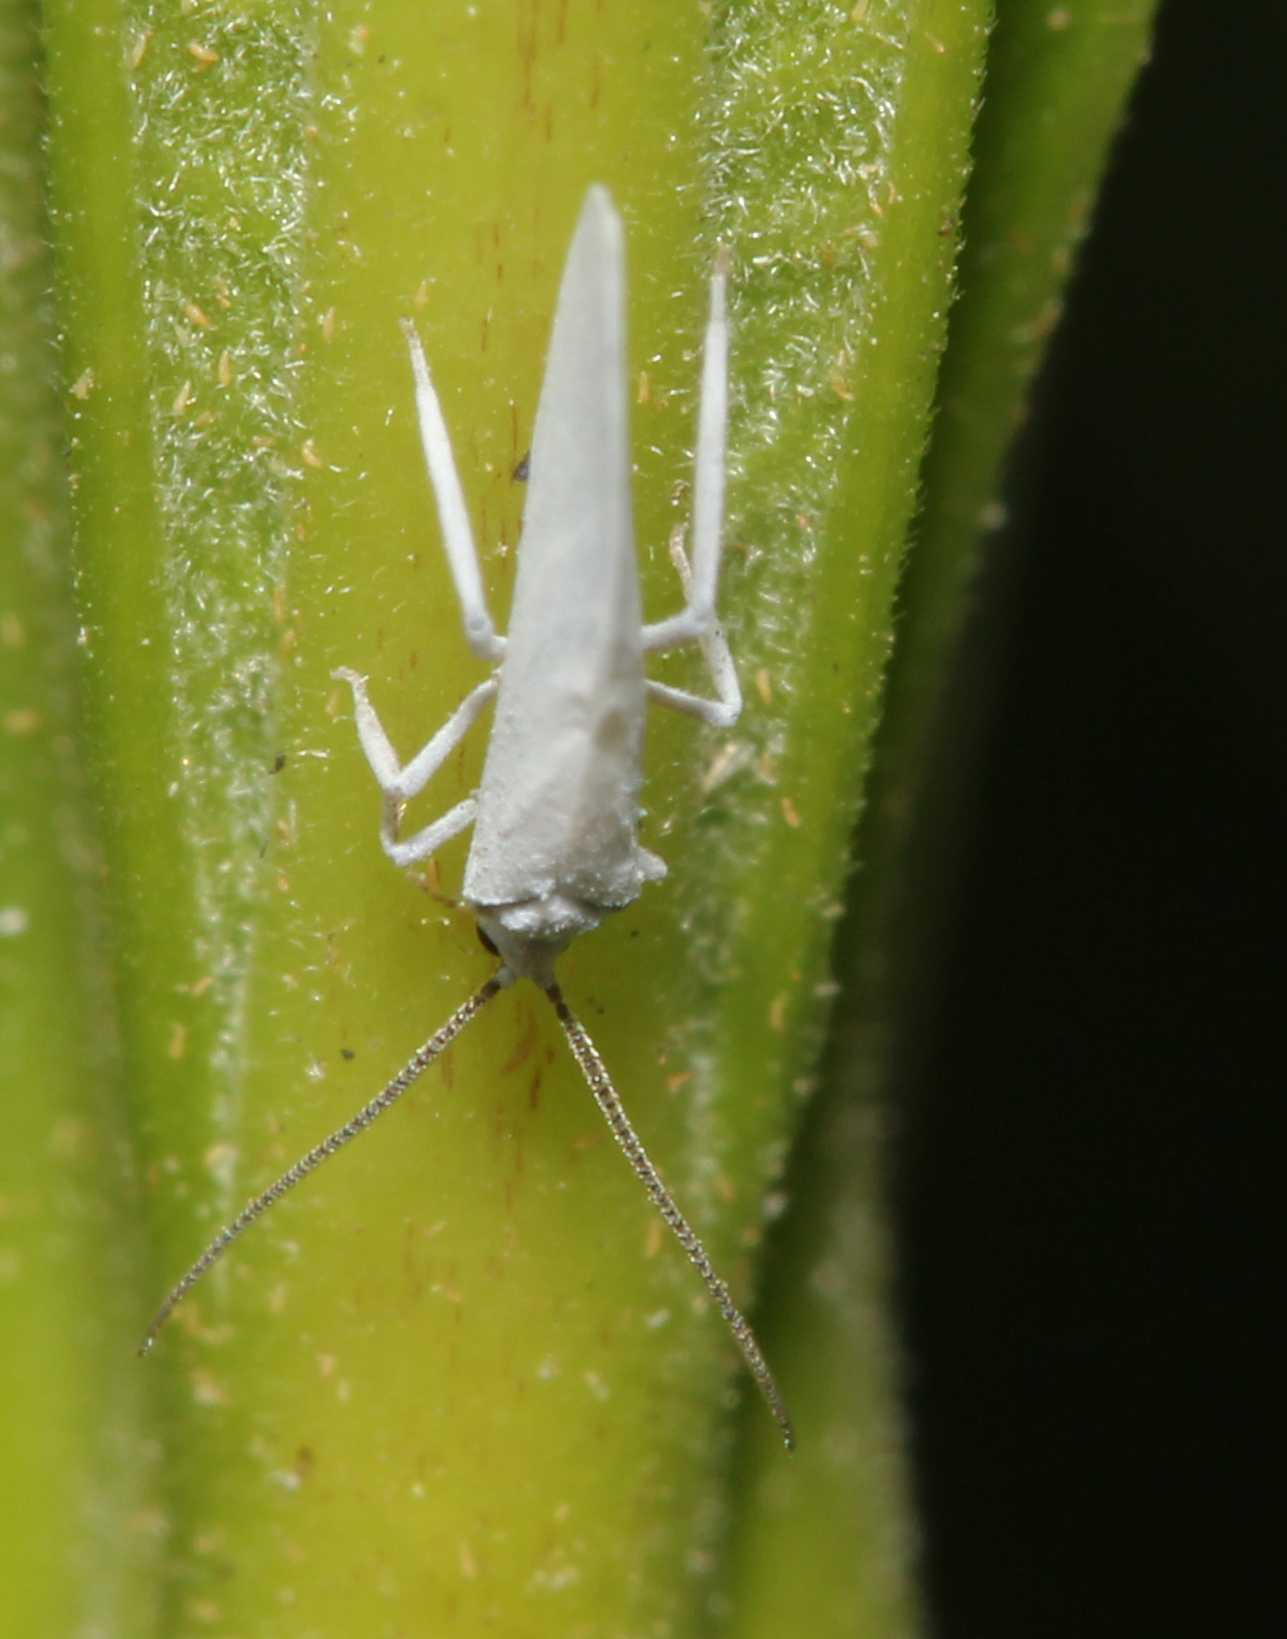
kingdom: Animalia
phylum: Arthropoda
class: Insecta
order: Neuroptera
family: Coniopterygidae
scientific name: Coniopterygidae
